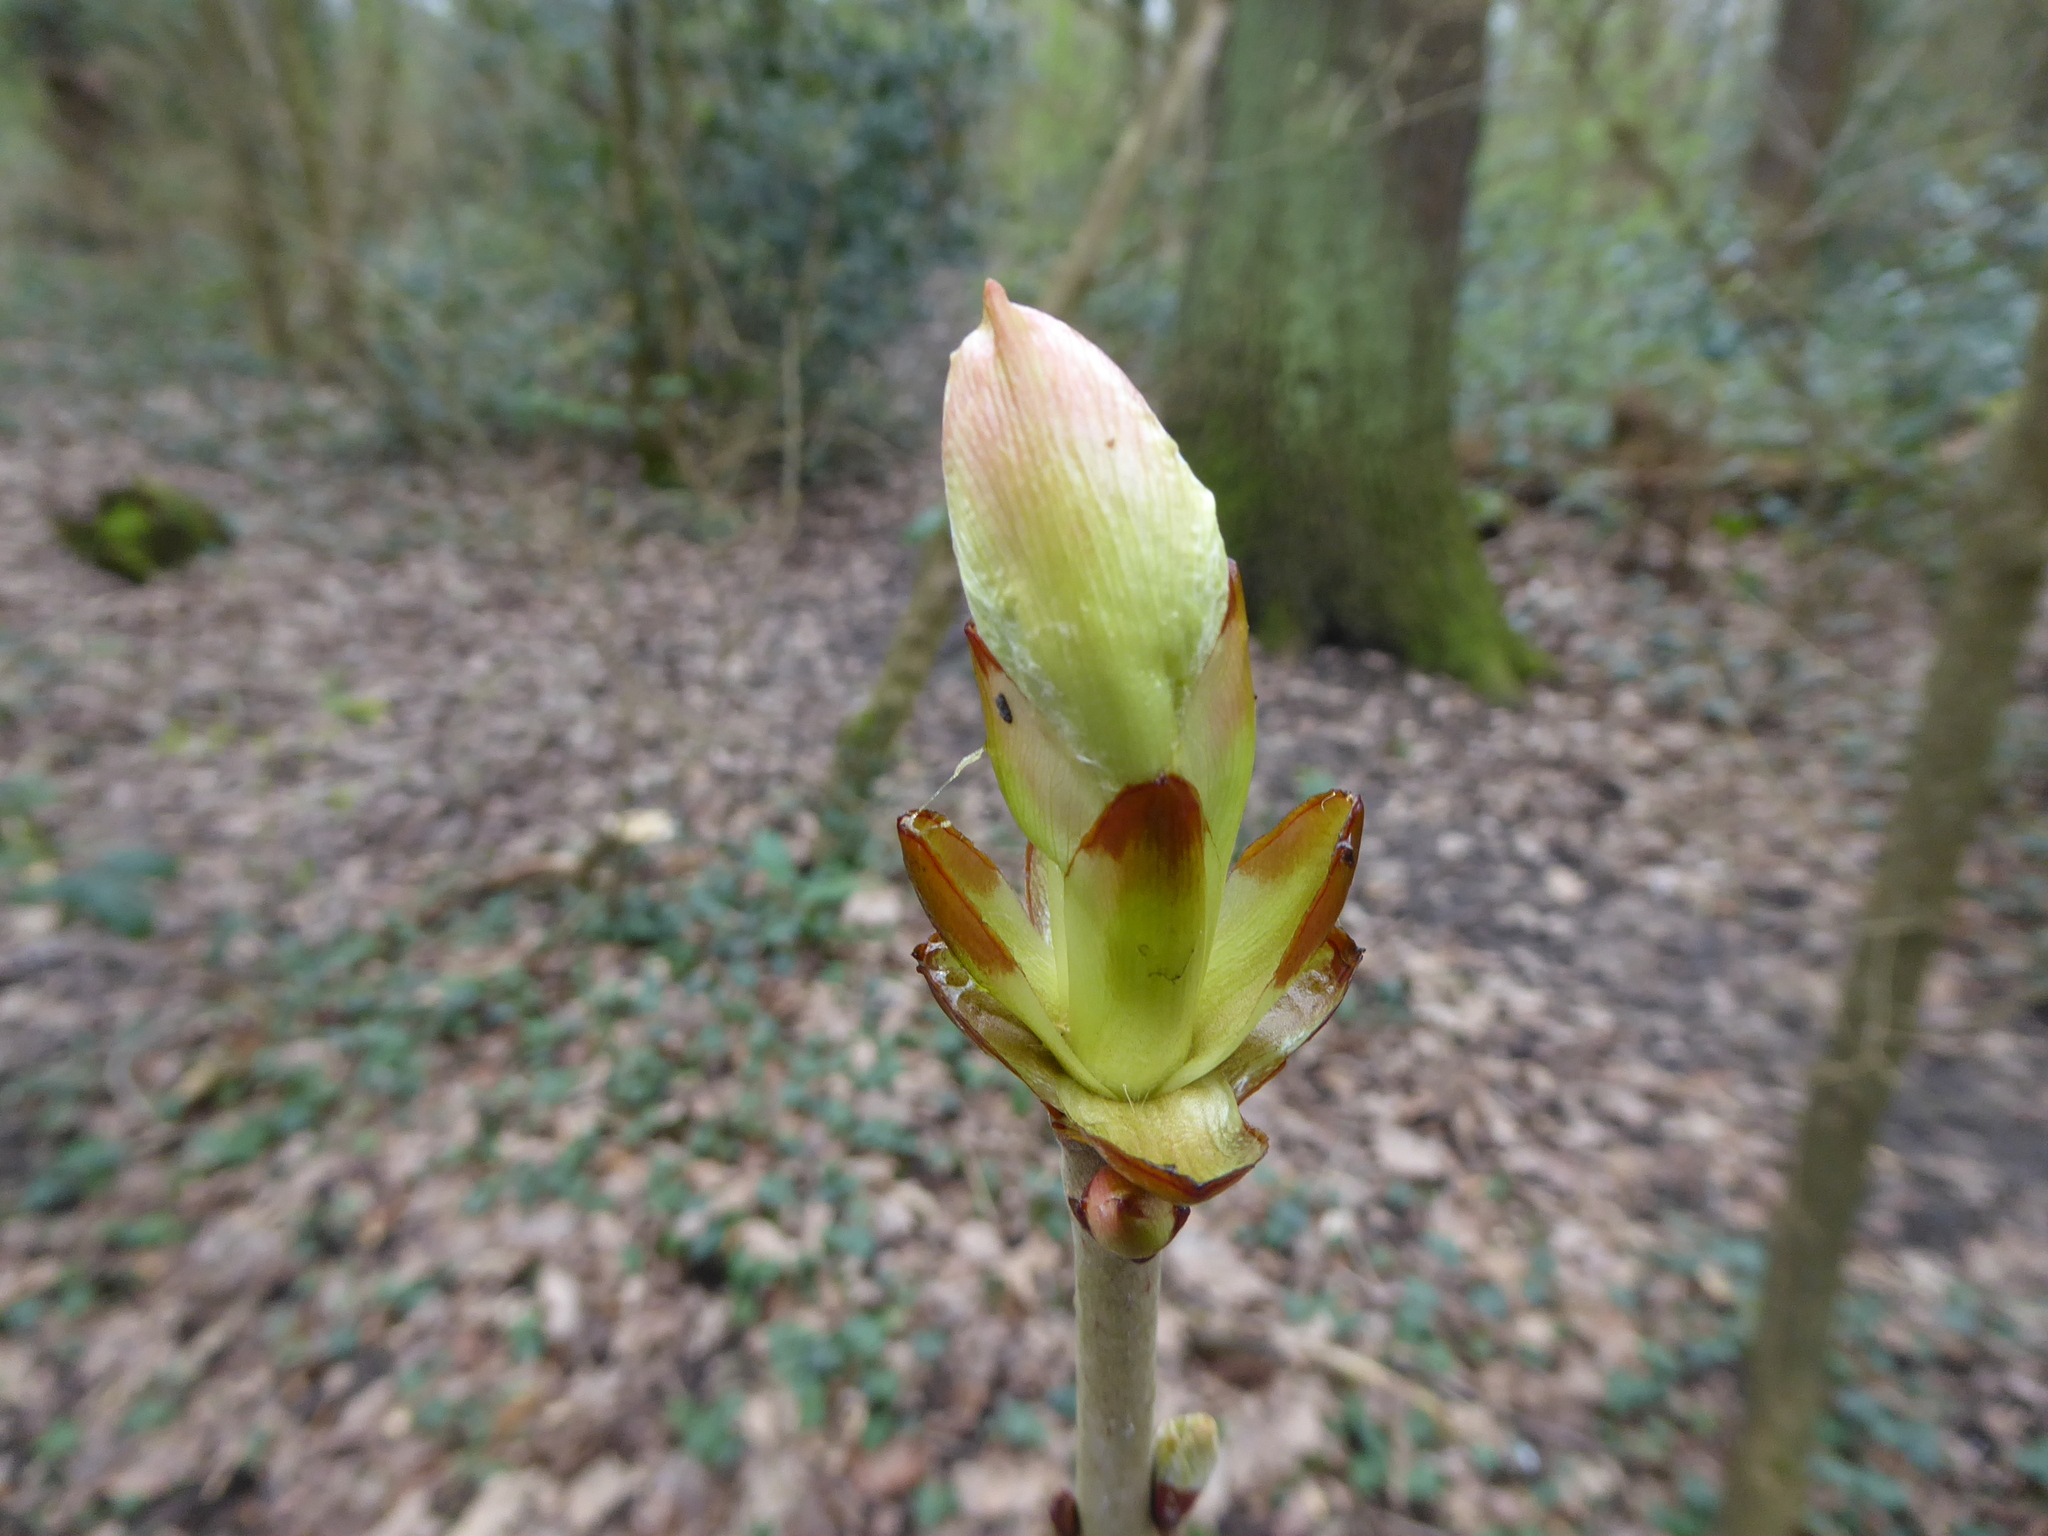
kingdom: Plantae
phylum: Tracheophyta
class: Magnoliopsida
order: Sapindales
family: Sapindaceae
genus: Aesculus
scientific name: Aesculus hippocastanum
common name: Horse-chestnut
